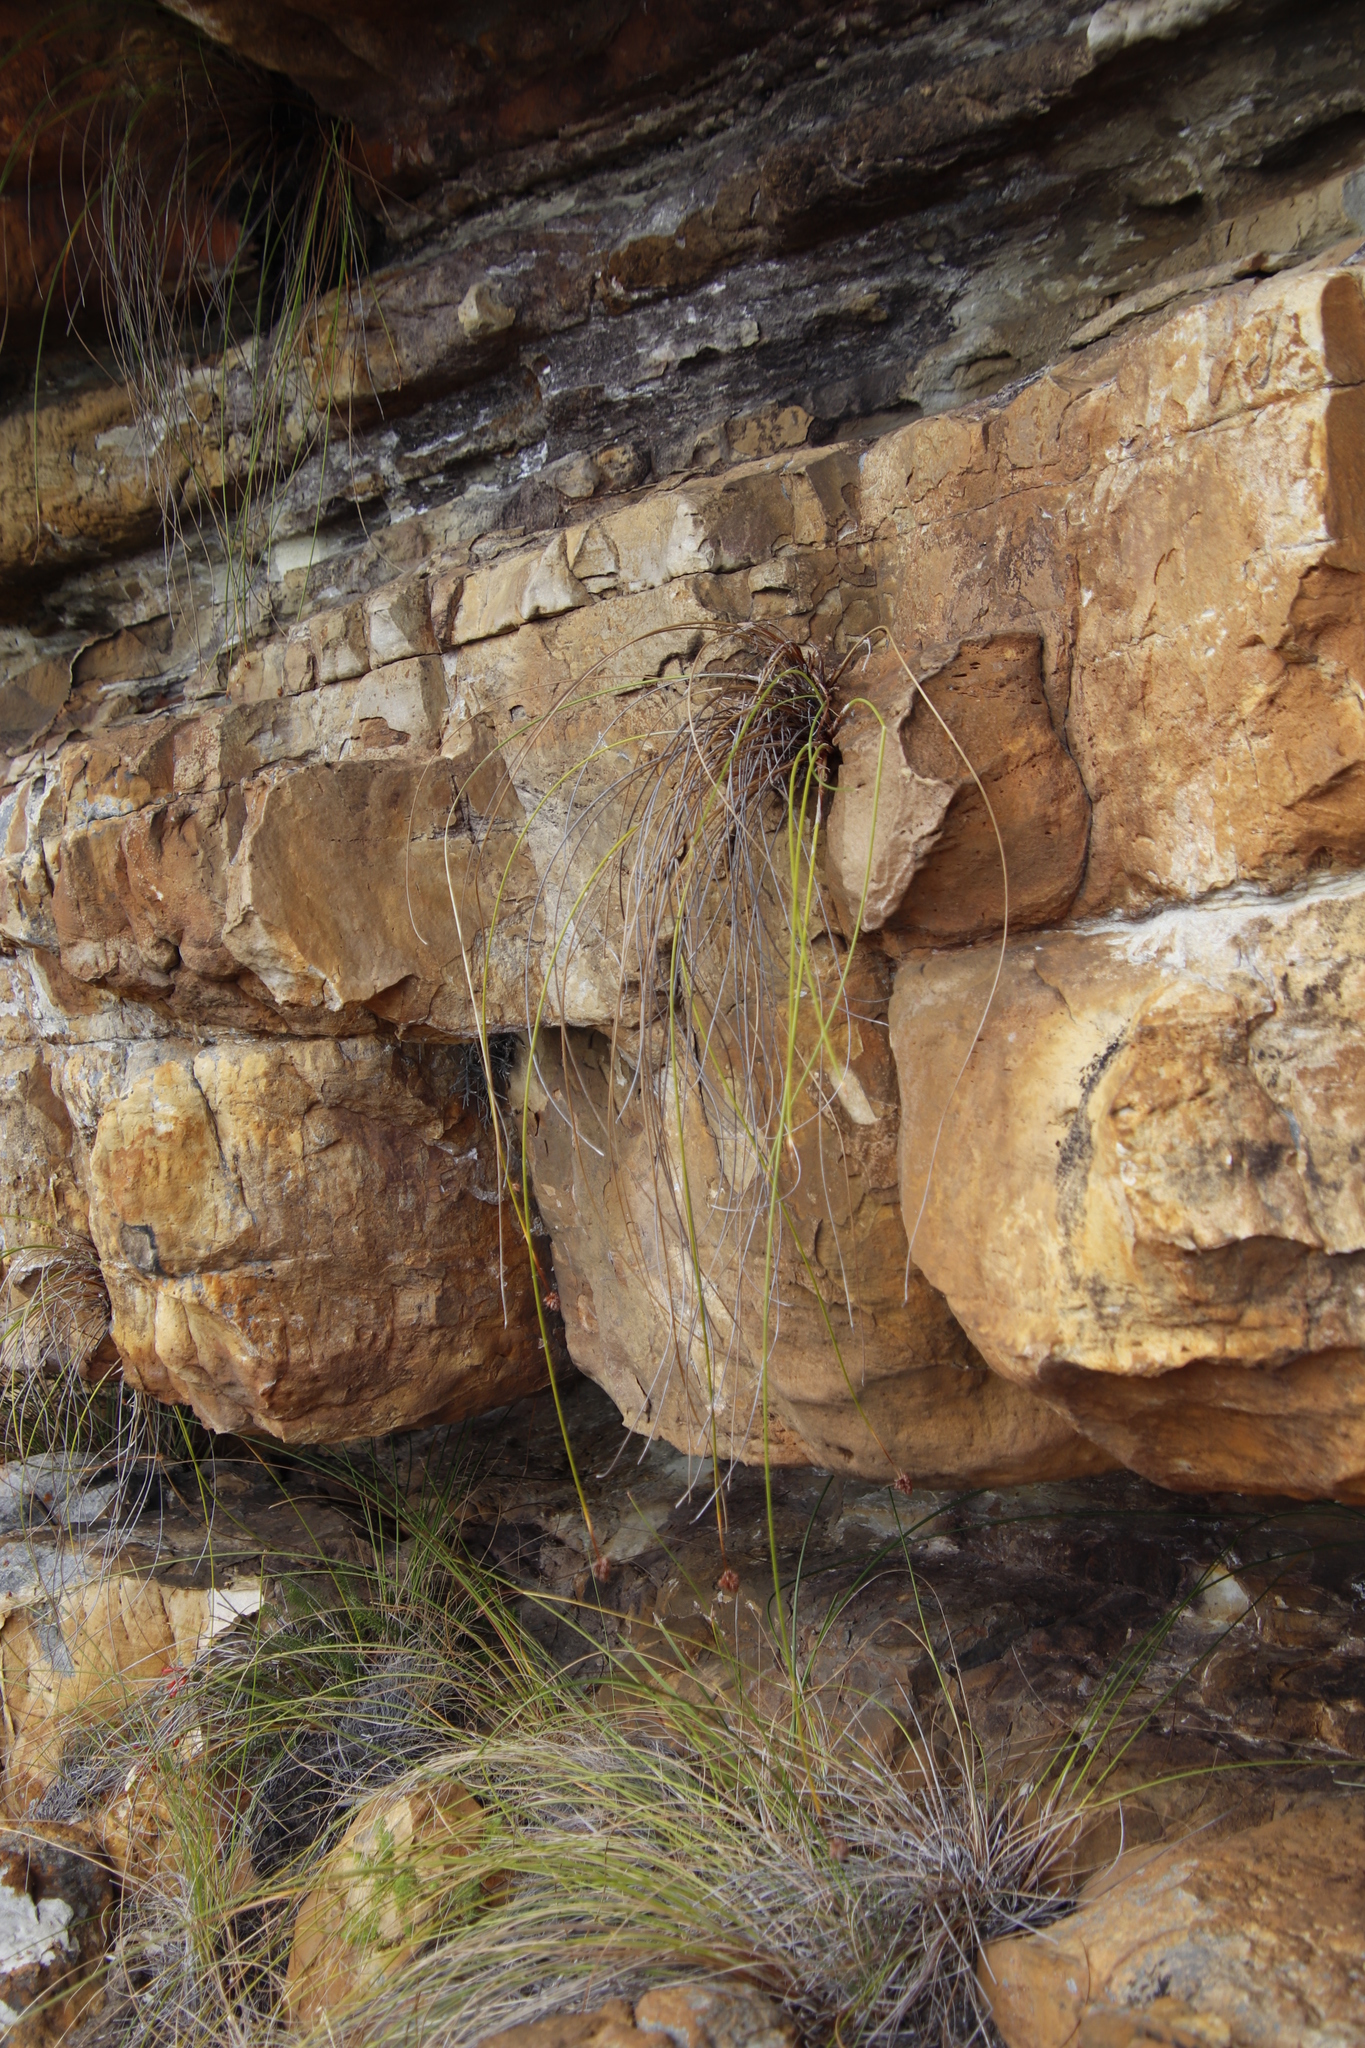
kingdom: Plantae
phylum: Tracheophyta
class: Liliopsida
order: Poales
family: Cyperaceae
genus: Ficinia
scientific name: Ficinia brevifolia
